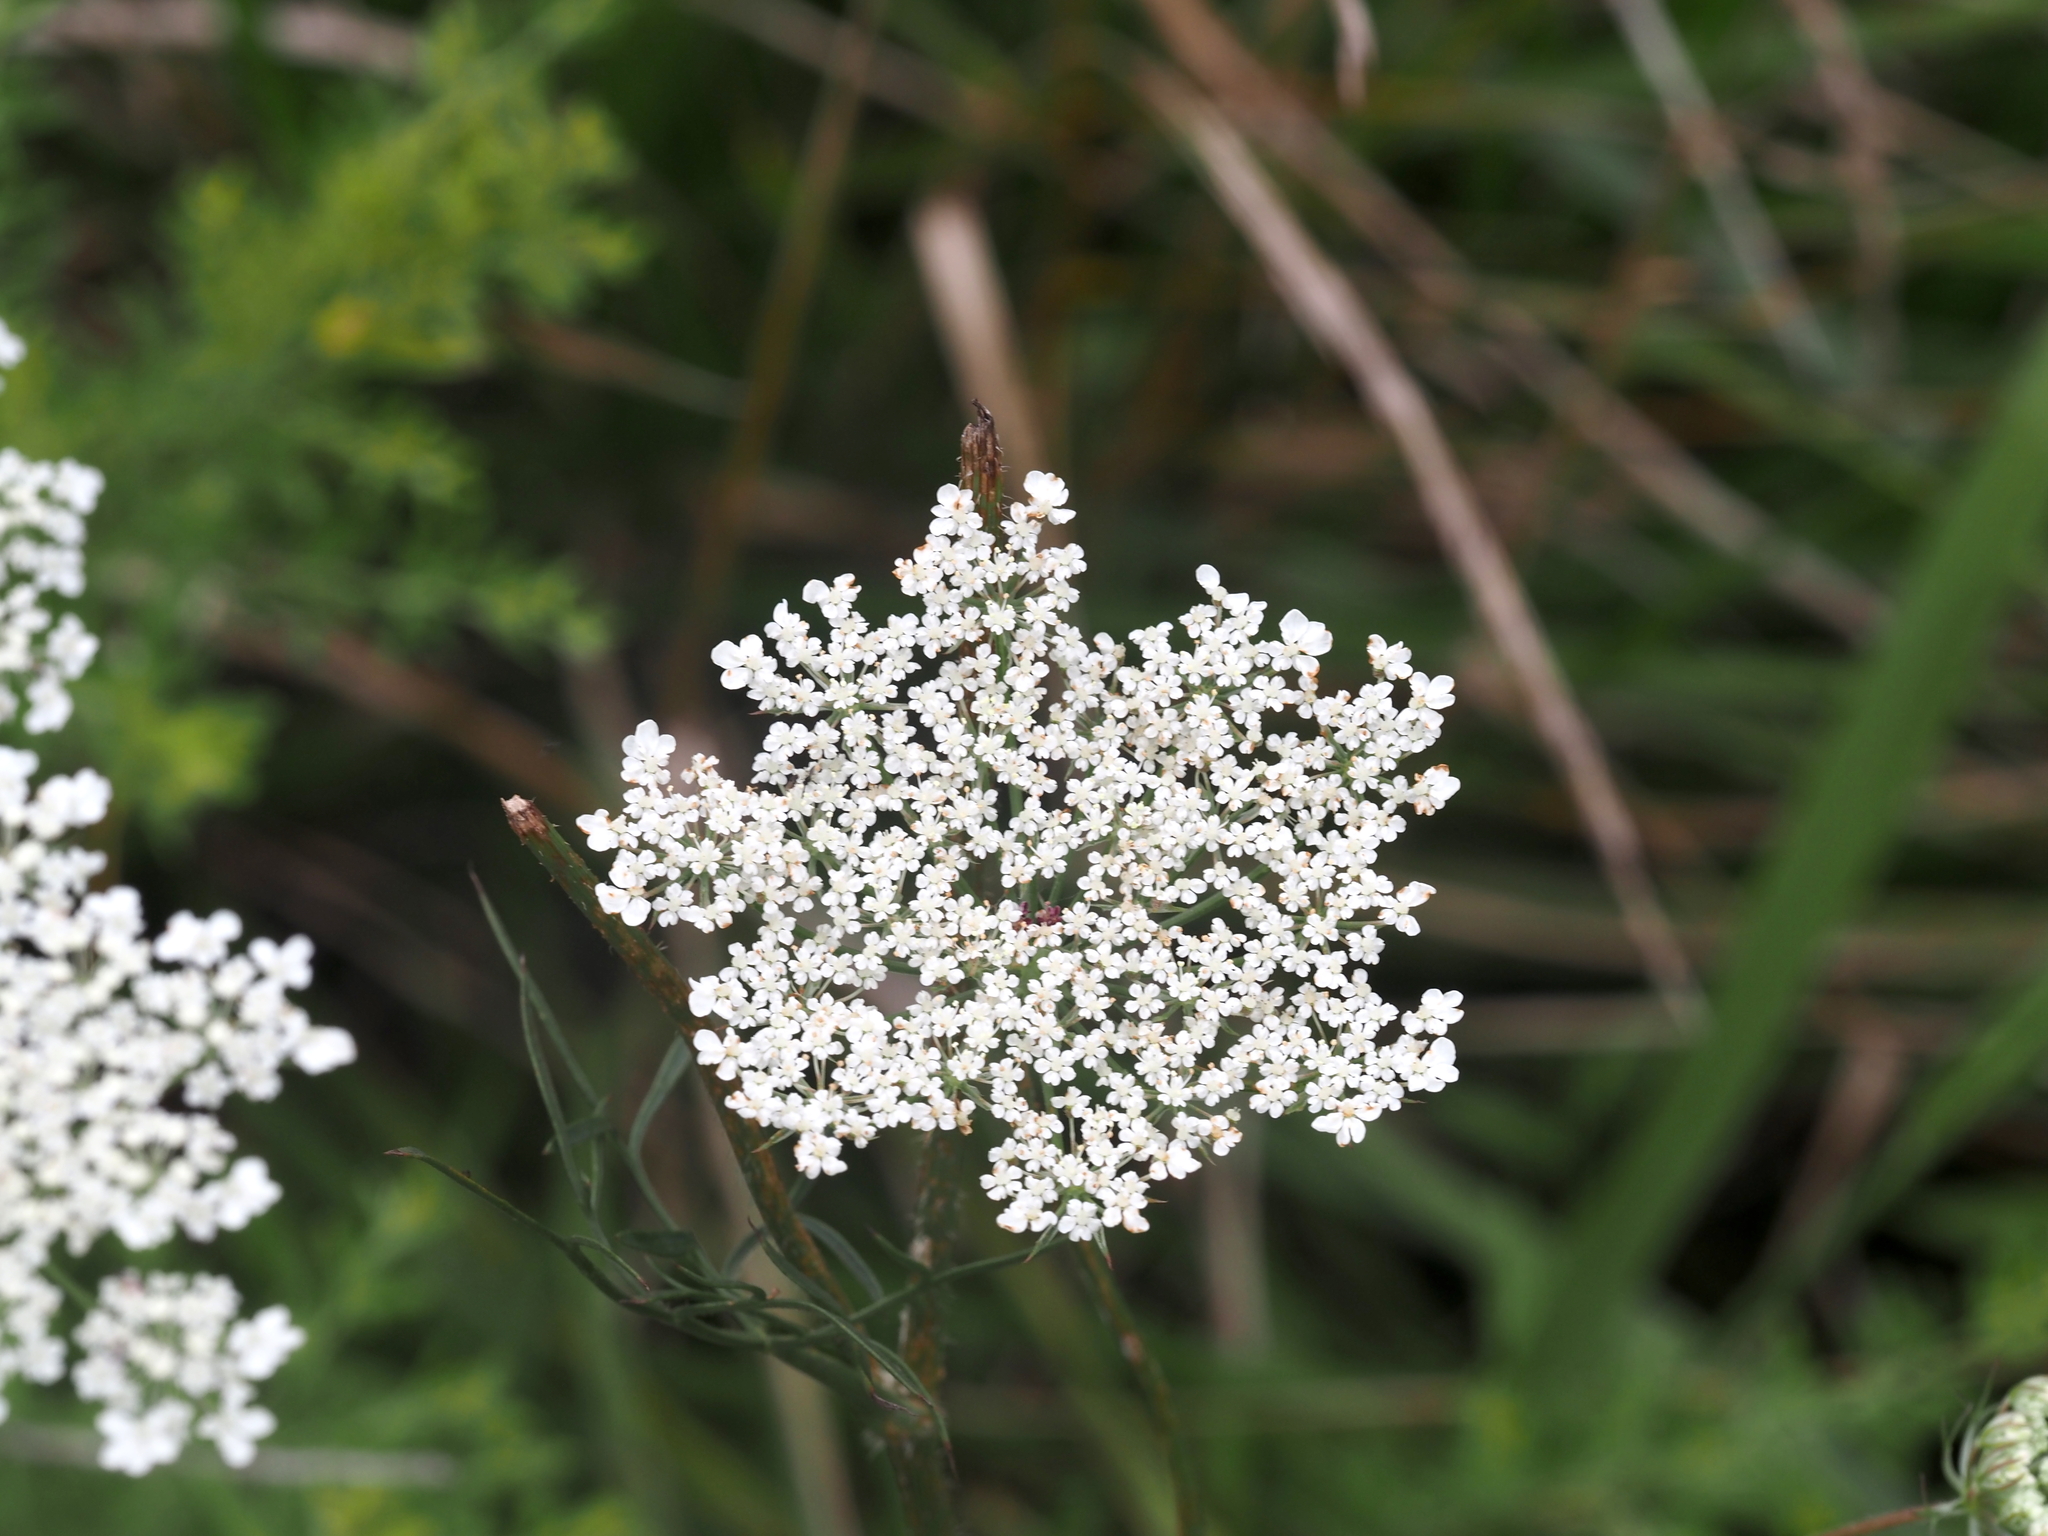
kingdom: Plantae
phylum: Tracheophyta
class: Magnoliopsida
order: Apiales
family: Apiaceae
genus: Daucus
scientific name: Daucus carota
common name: Wild carrot
